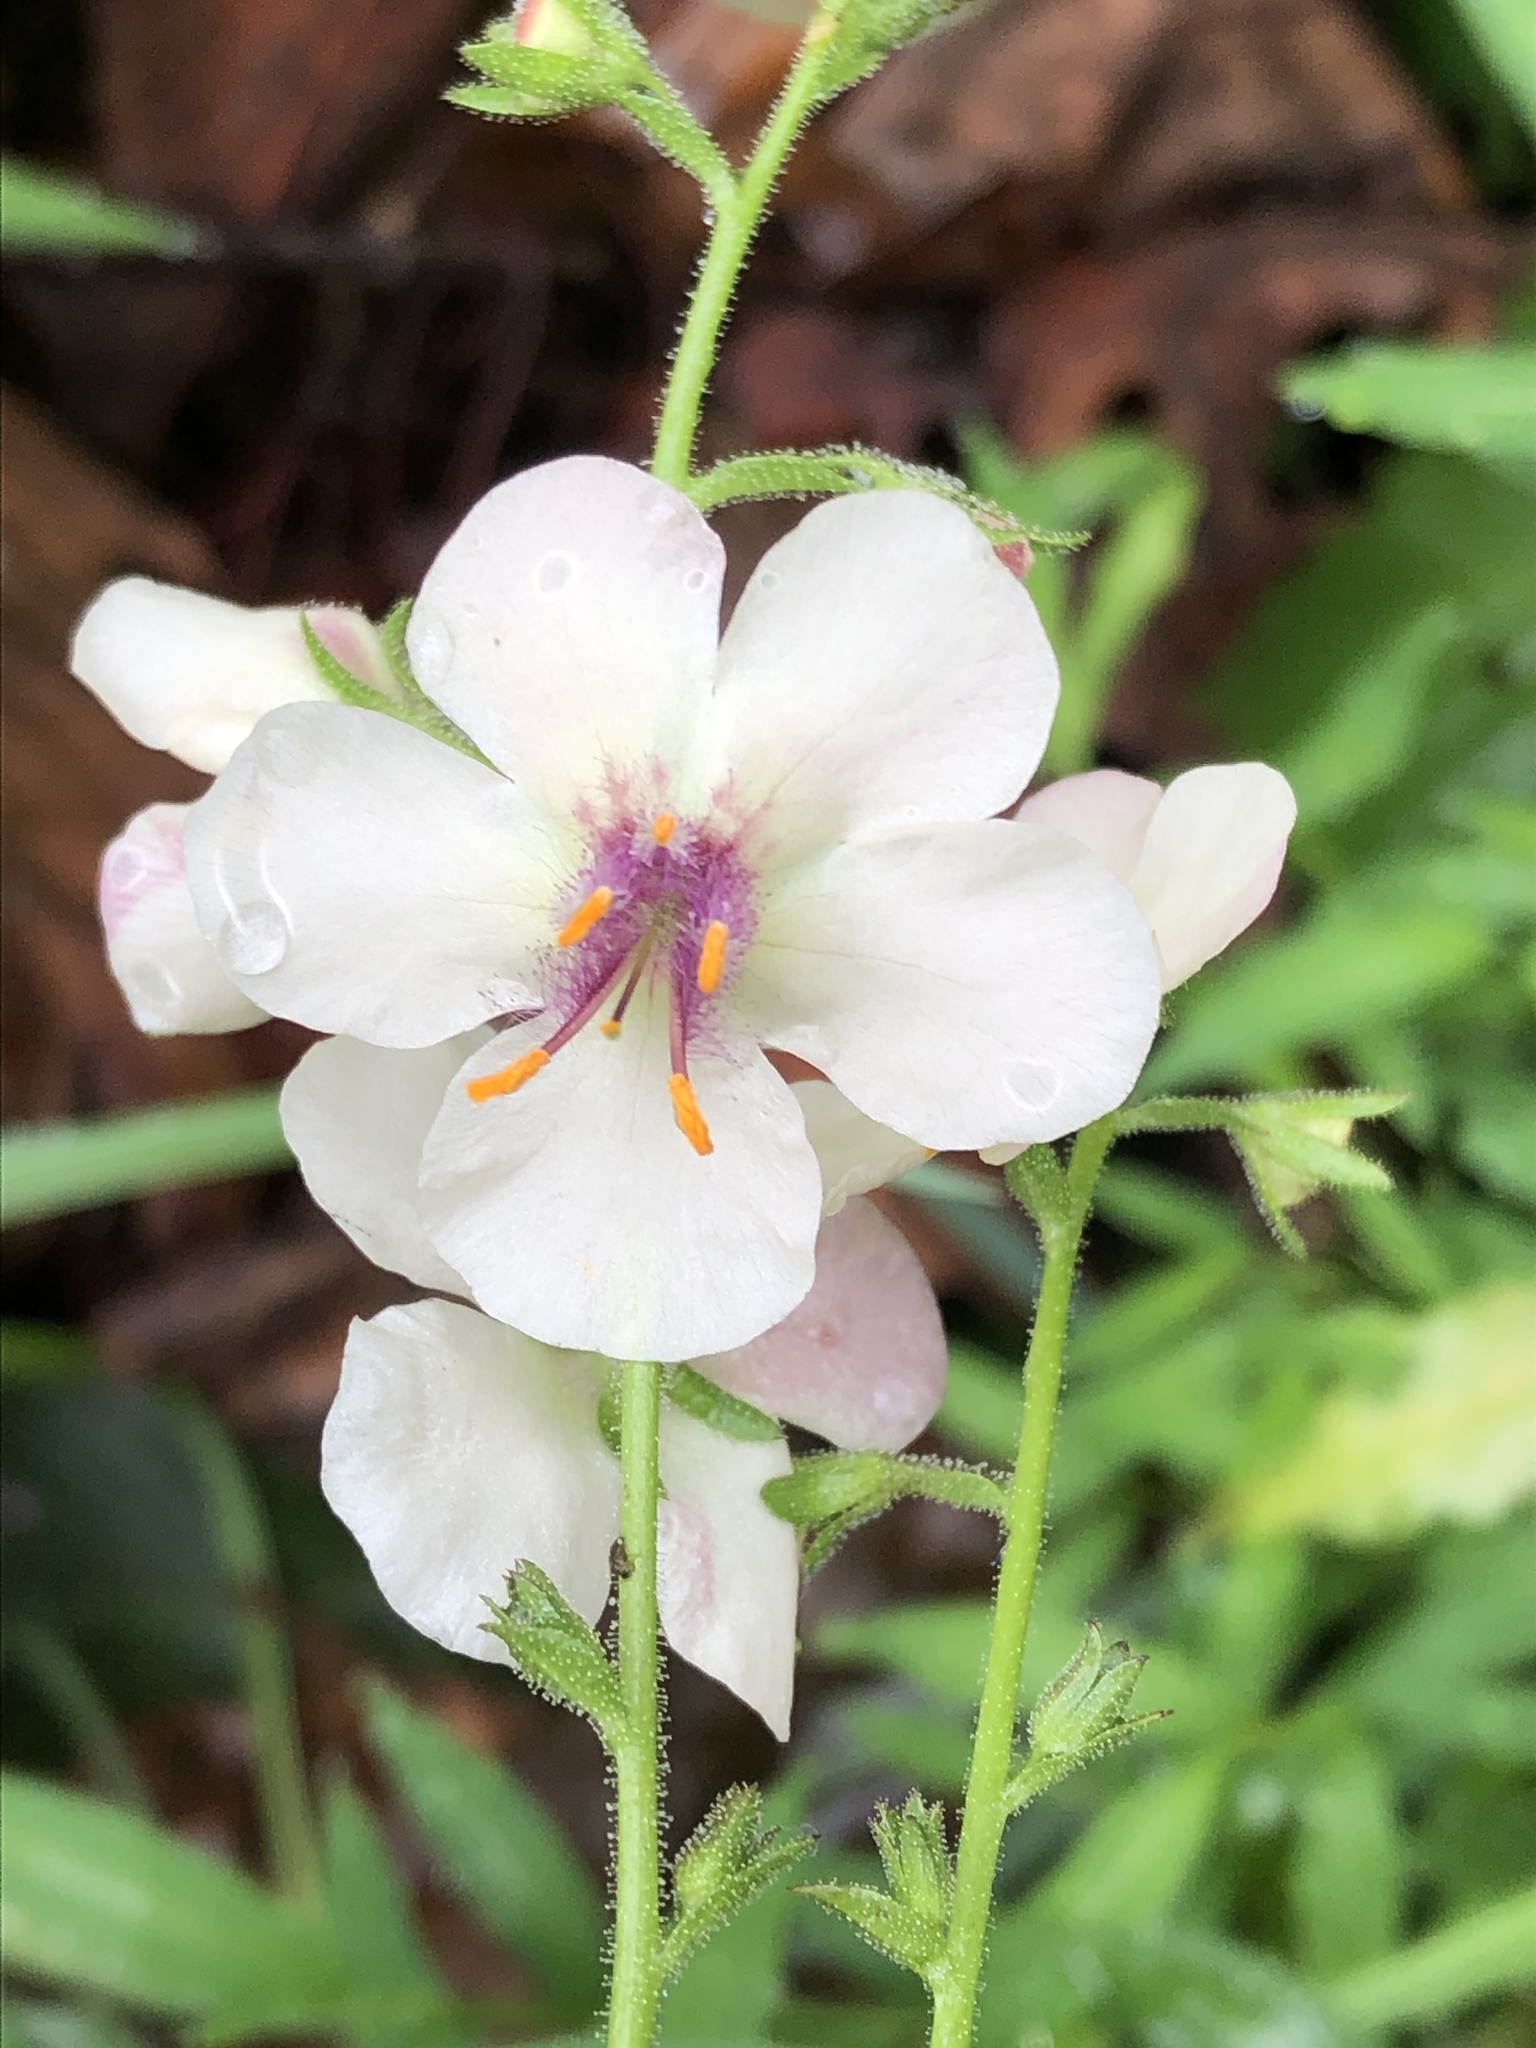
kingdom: Plantae
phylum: Tracheophyta
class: Magnoliopsida
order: Lamiales
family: Scrophulariaceae
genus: Verbascum
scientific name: Verbascum blattaria
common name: Moth mullein
